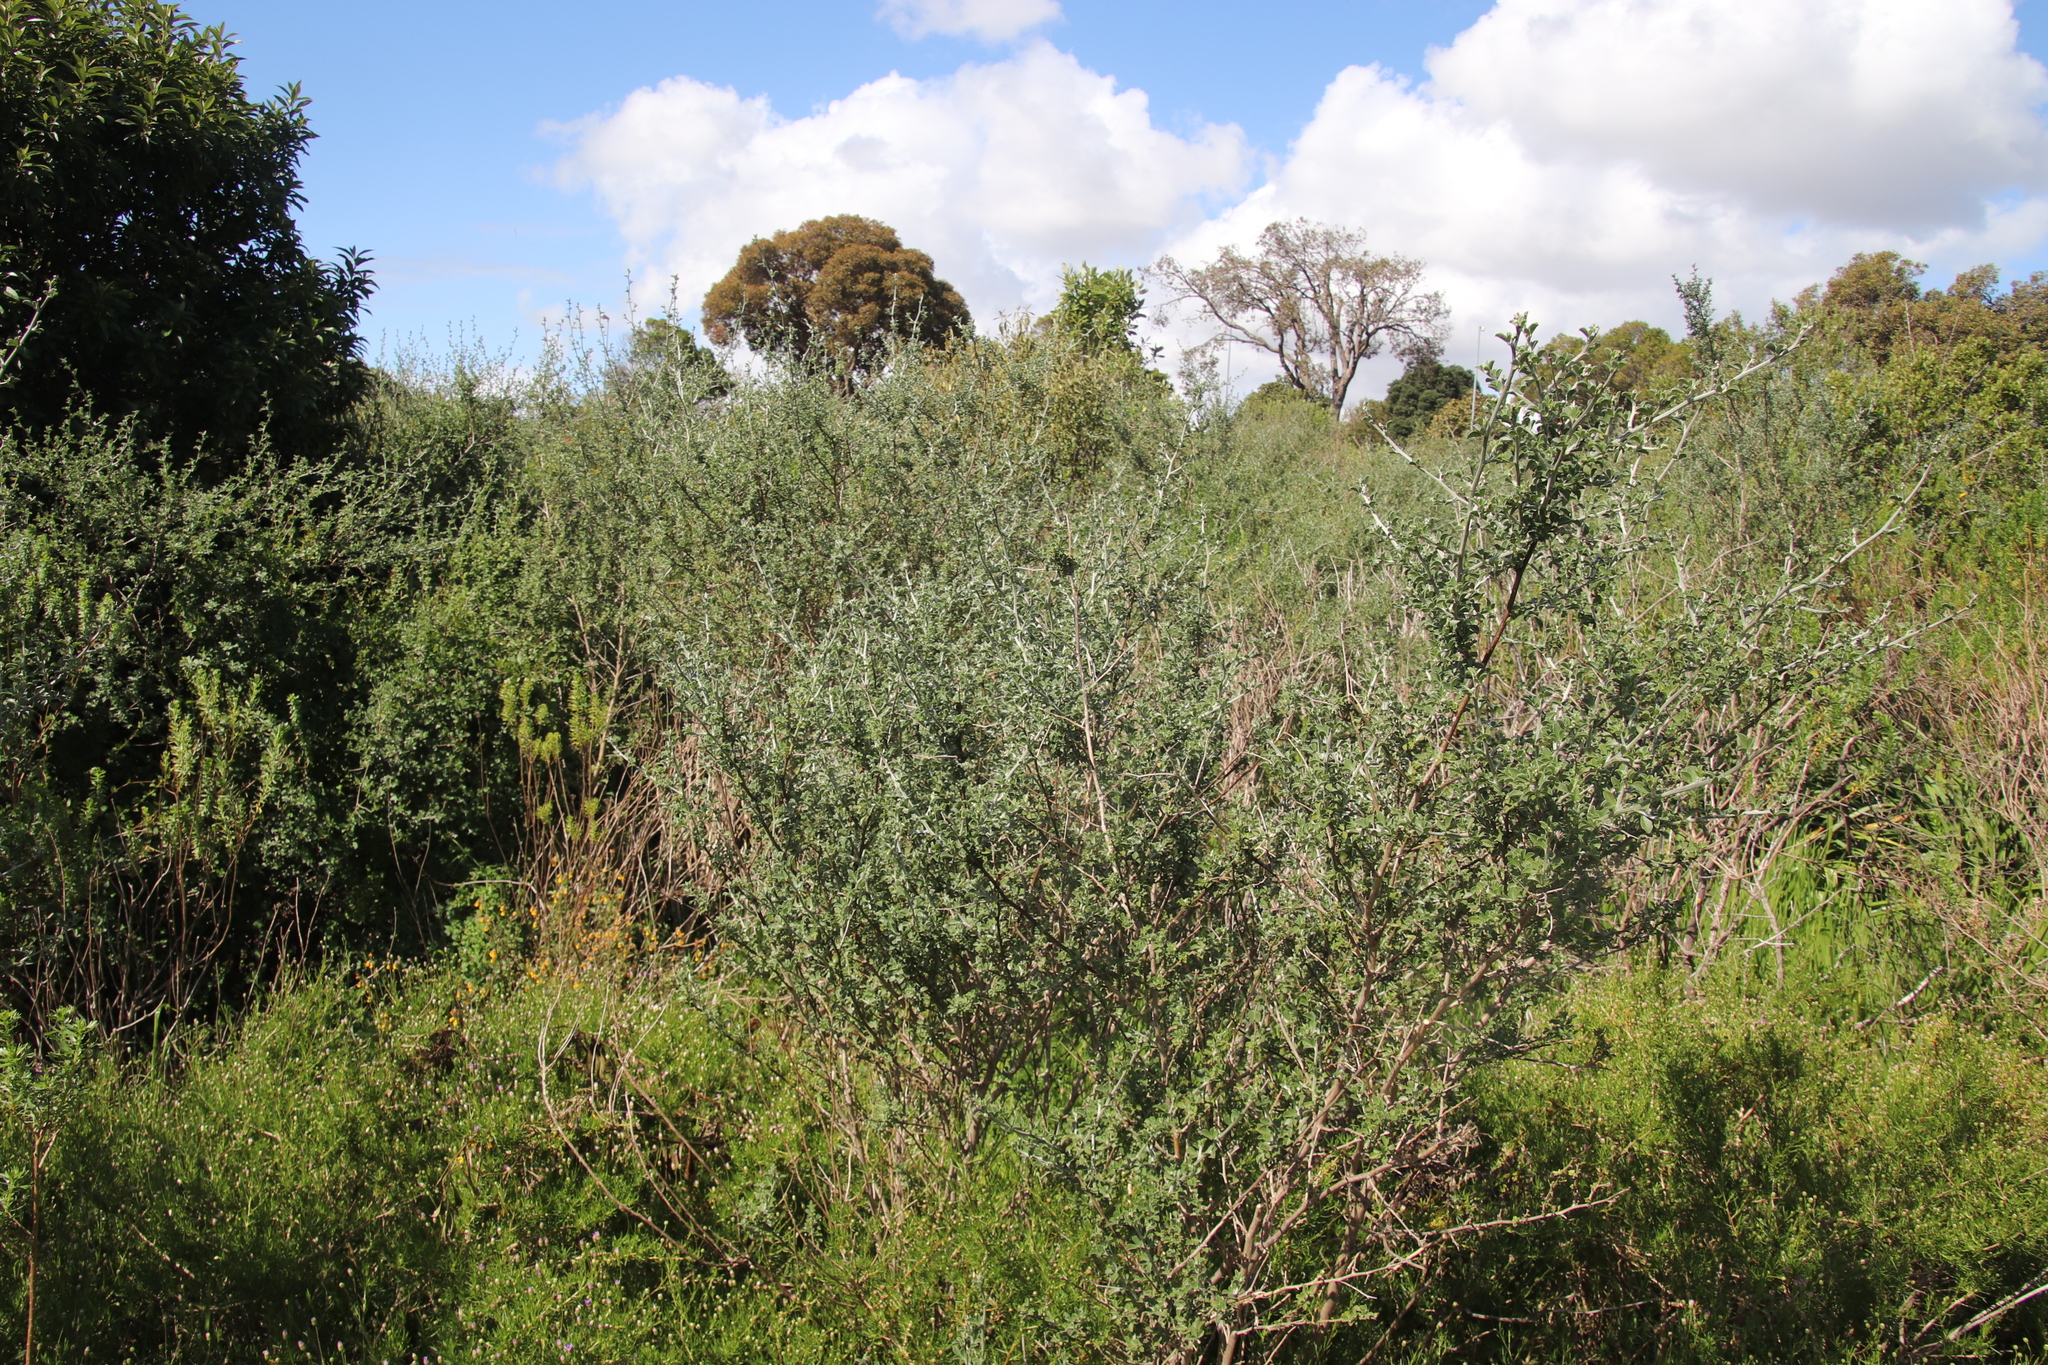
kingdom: Plantae
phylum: Tracheophyta
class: Magnoliopsida
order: Fabales
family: Fabaceae
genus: Psoralea
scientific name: Psoralea hirta
